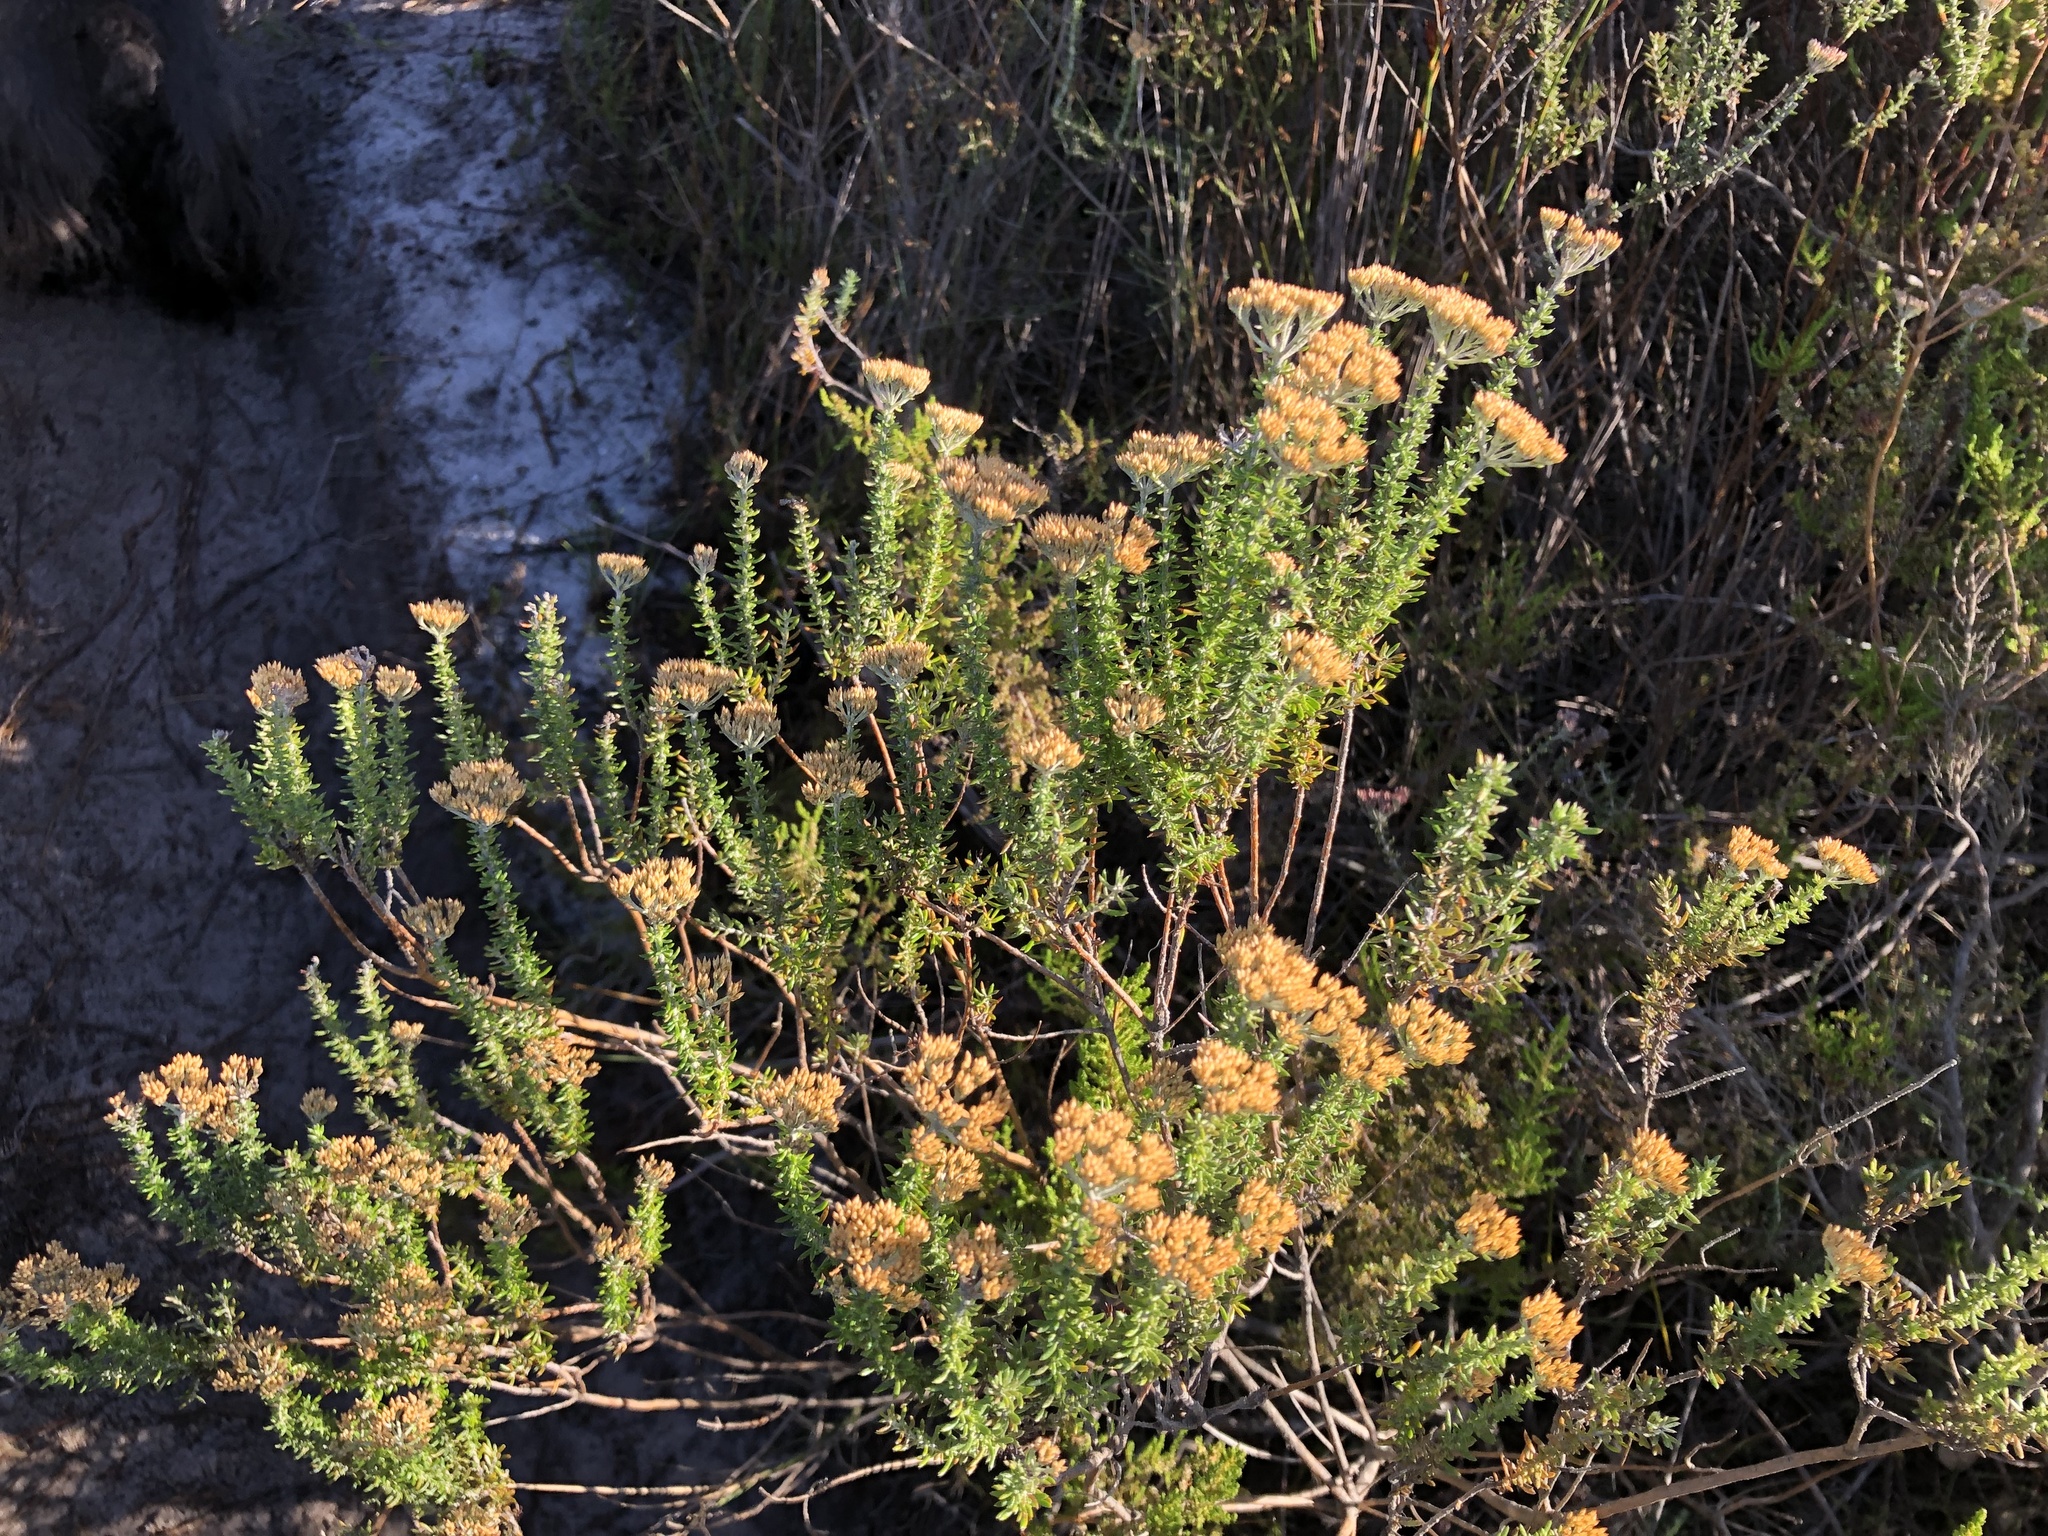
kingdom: Plantae
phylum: Tracheophyta
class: Magnoliopsida
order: Asterales
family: Asteraceae
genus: Metalasia
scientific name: Metalasia densa
